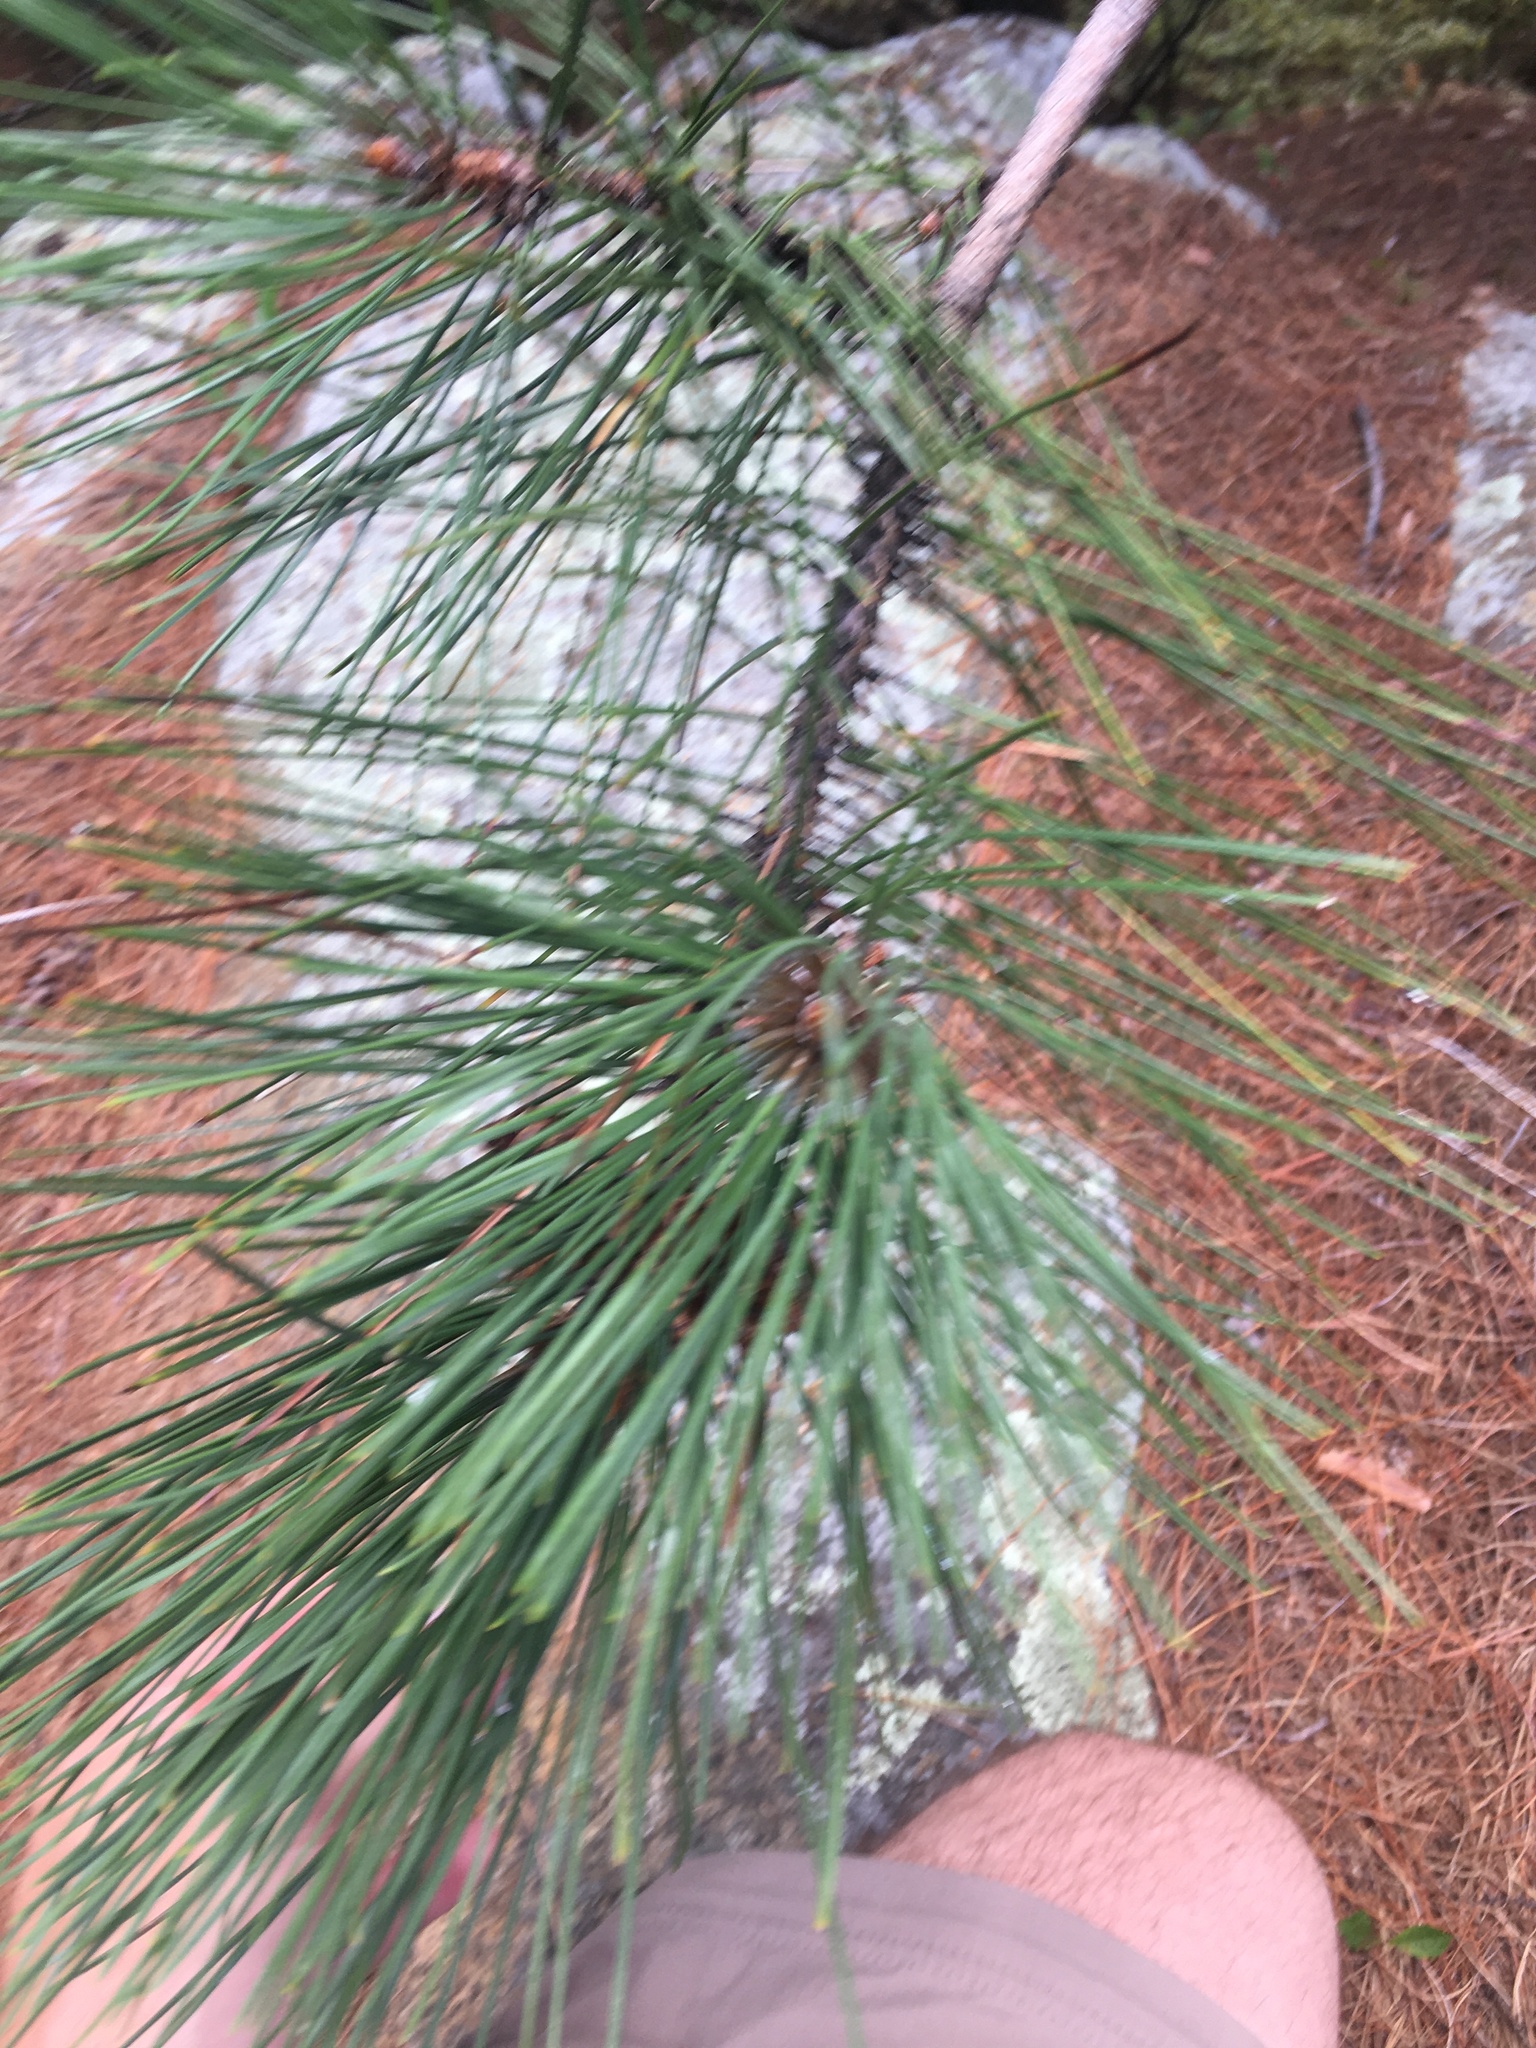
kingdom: Plantae
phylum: Tracheophyta
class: Pinopsida
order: Pinales
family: Pinaceae
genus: Pinus
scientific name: Pinus resinosa
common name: Norway pine
